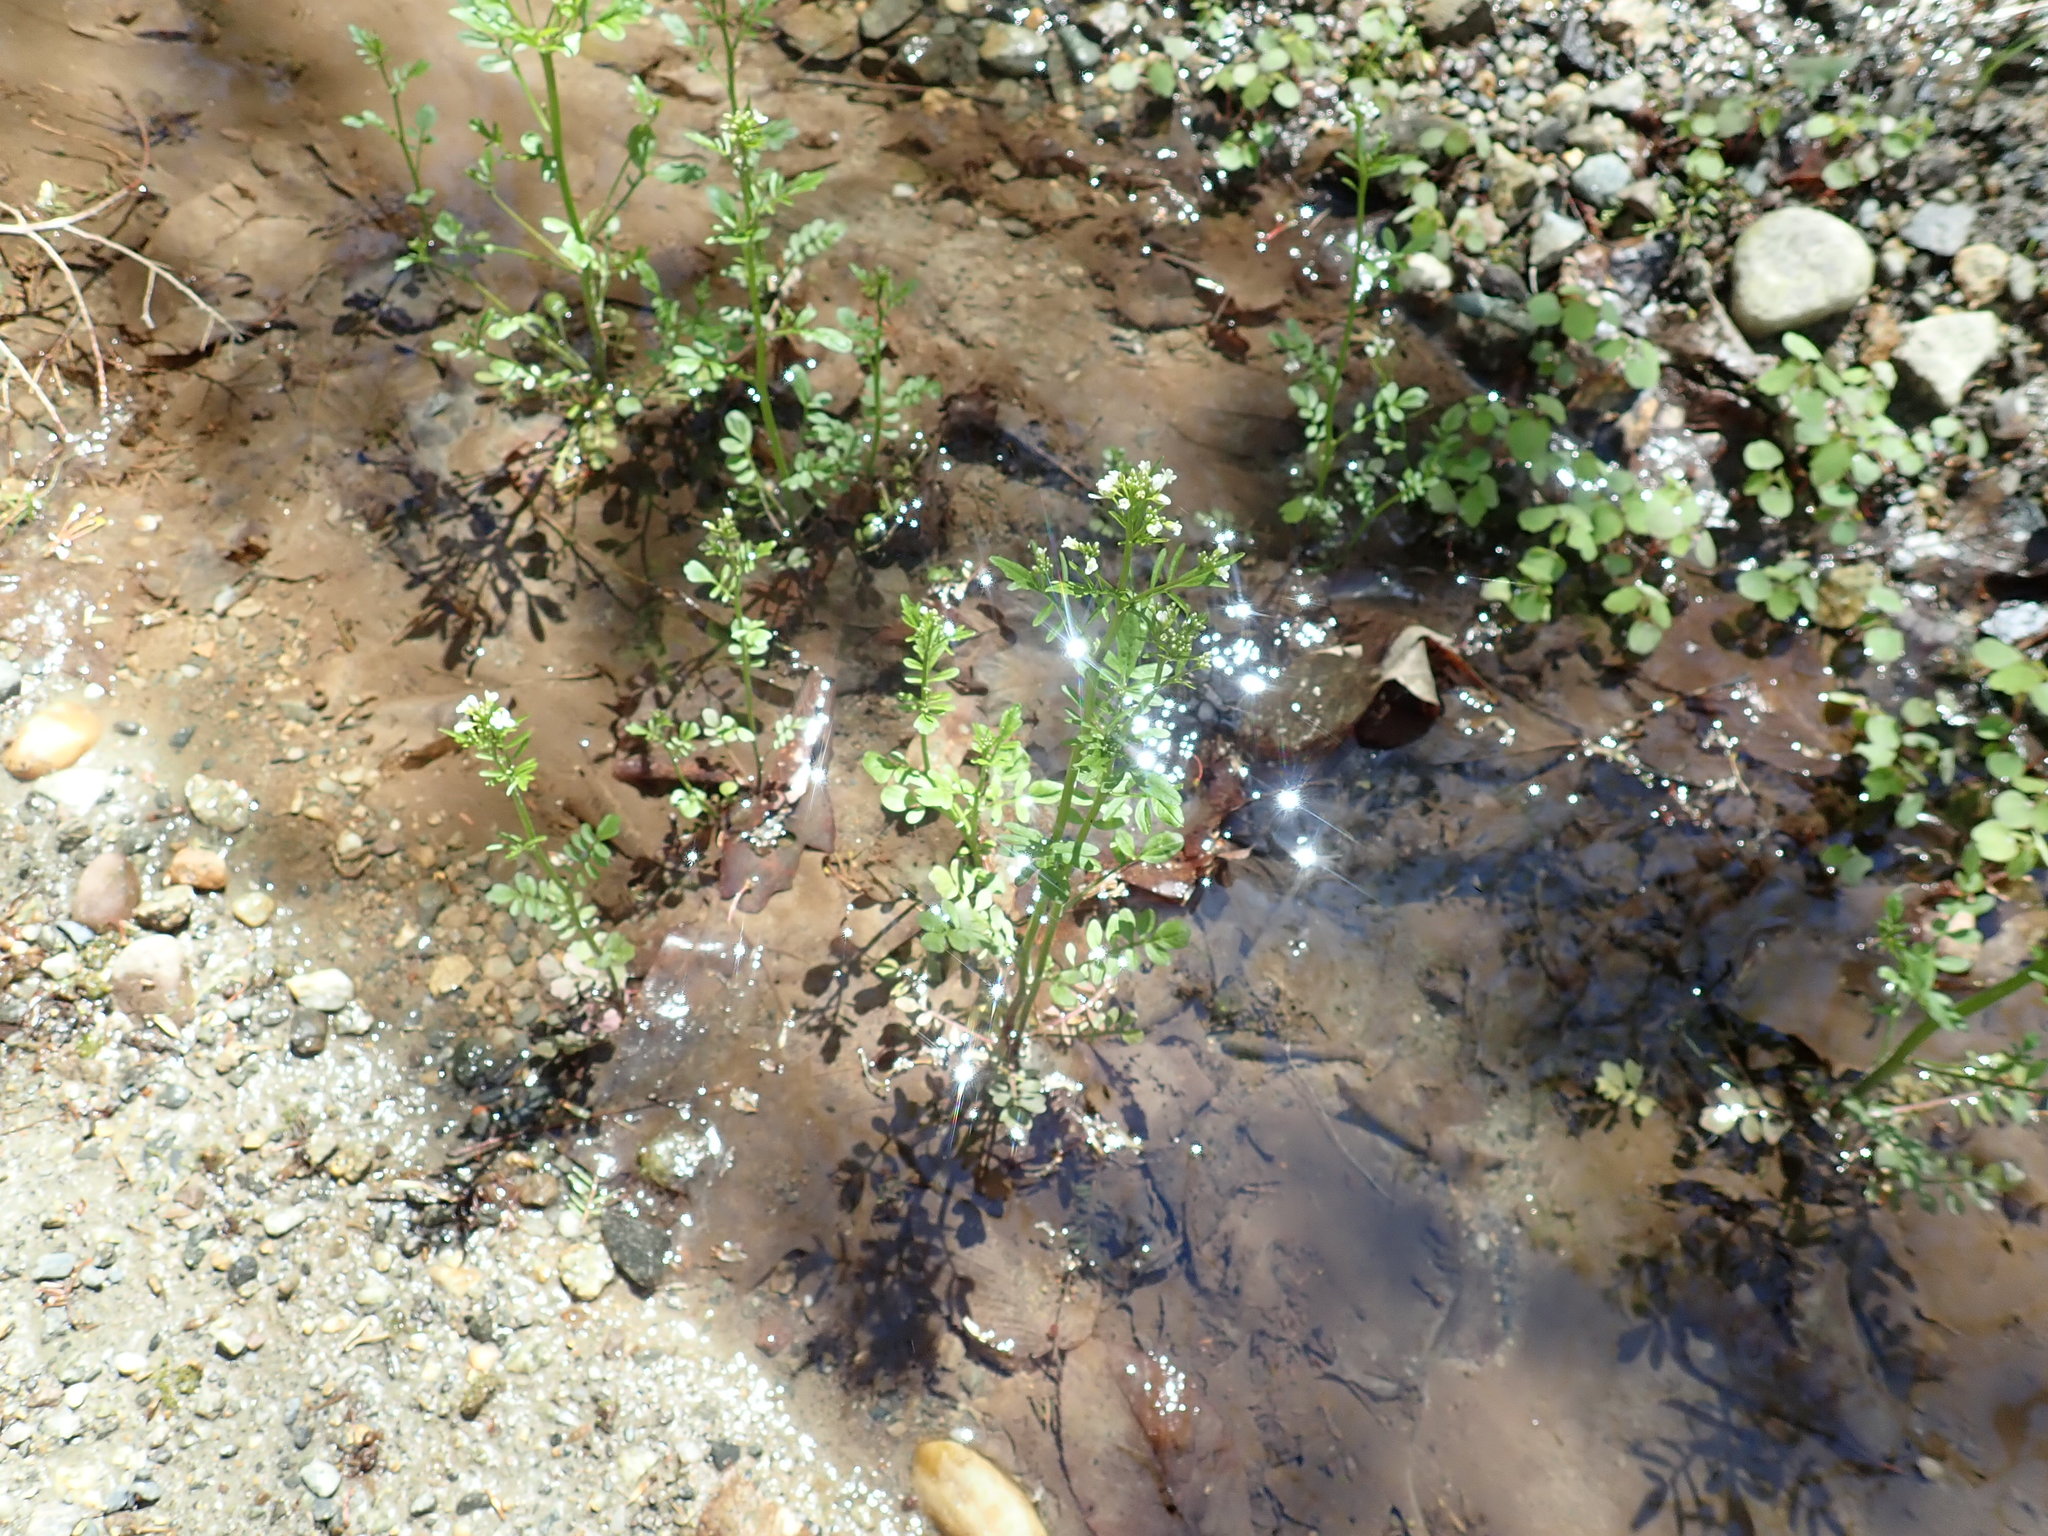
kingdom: Plantae
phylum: Tracheophyta
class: Magnoliopsida
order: Brassicales
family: Brassicaceae
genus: Cardamine
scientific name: Cardamine pensylvanica
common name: Pennsylvania bittercress
